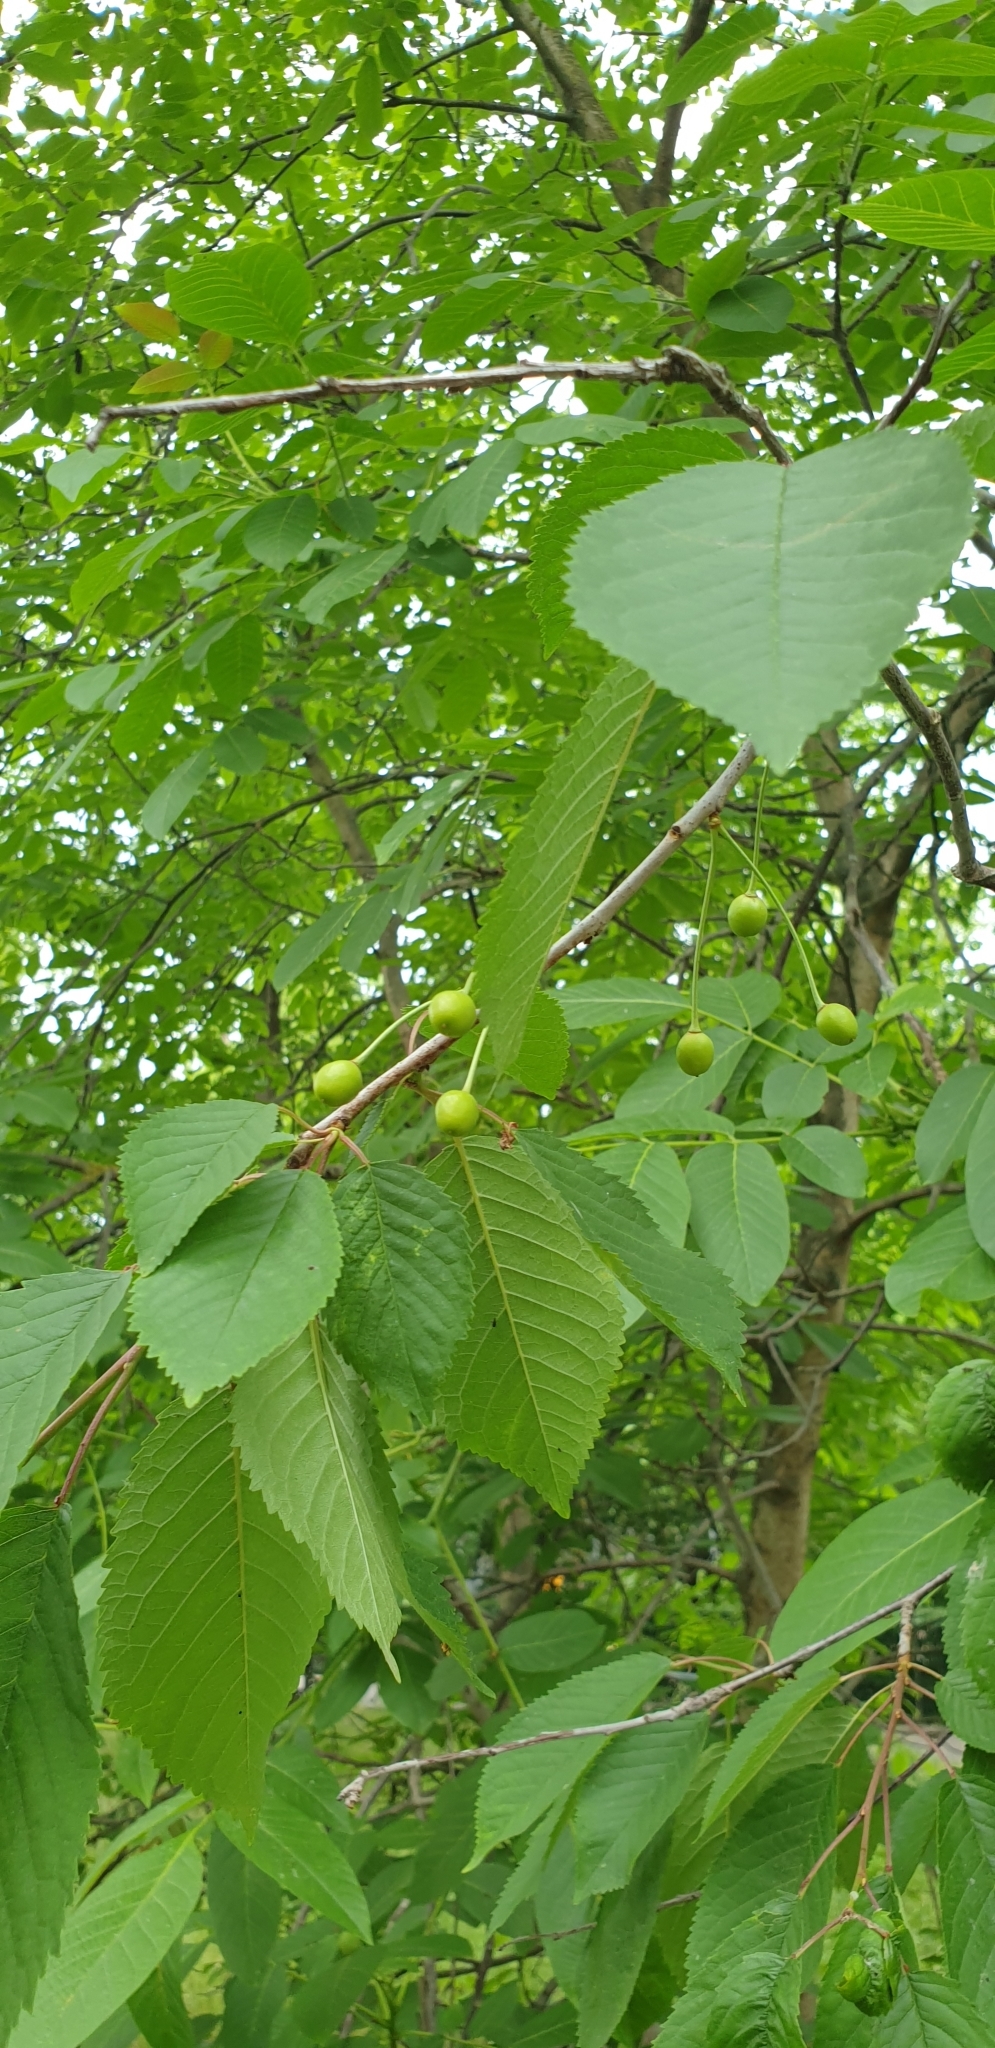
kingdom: Plantae
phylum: Tracheophyta
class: Magnoliopsida
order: Rosales
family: Rosaceae
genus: Prunus
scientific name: Prunus avium
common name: Sweet cherry
